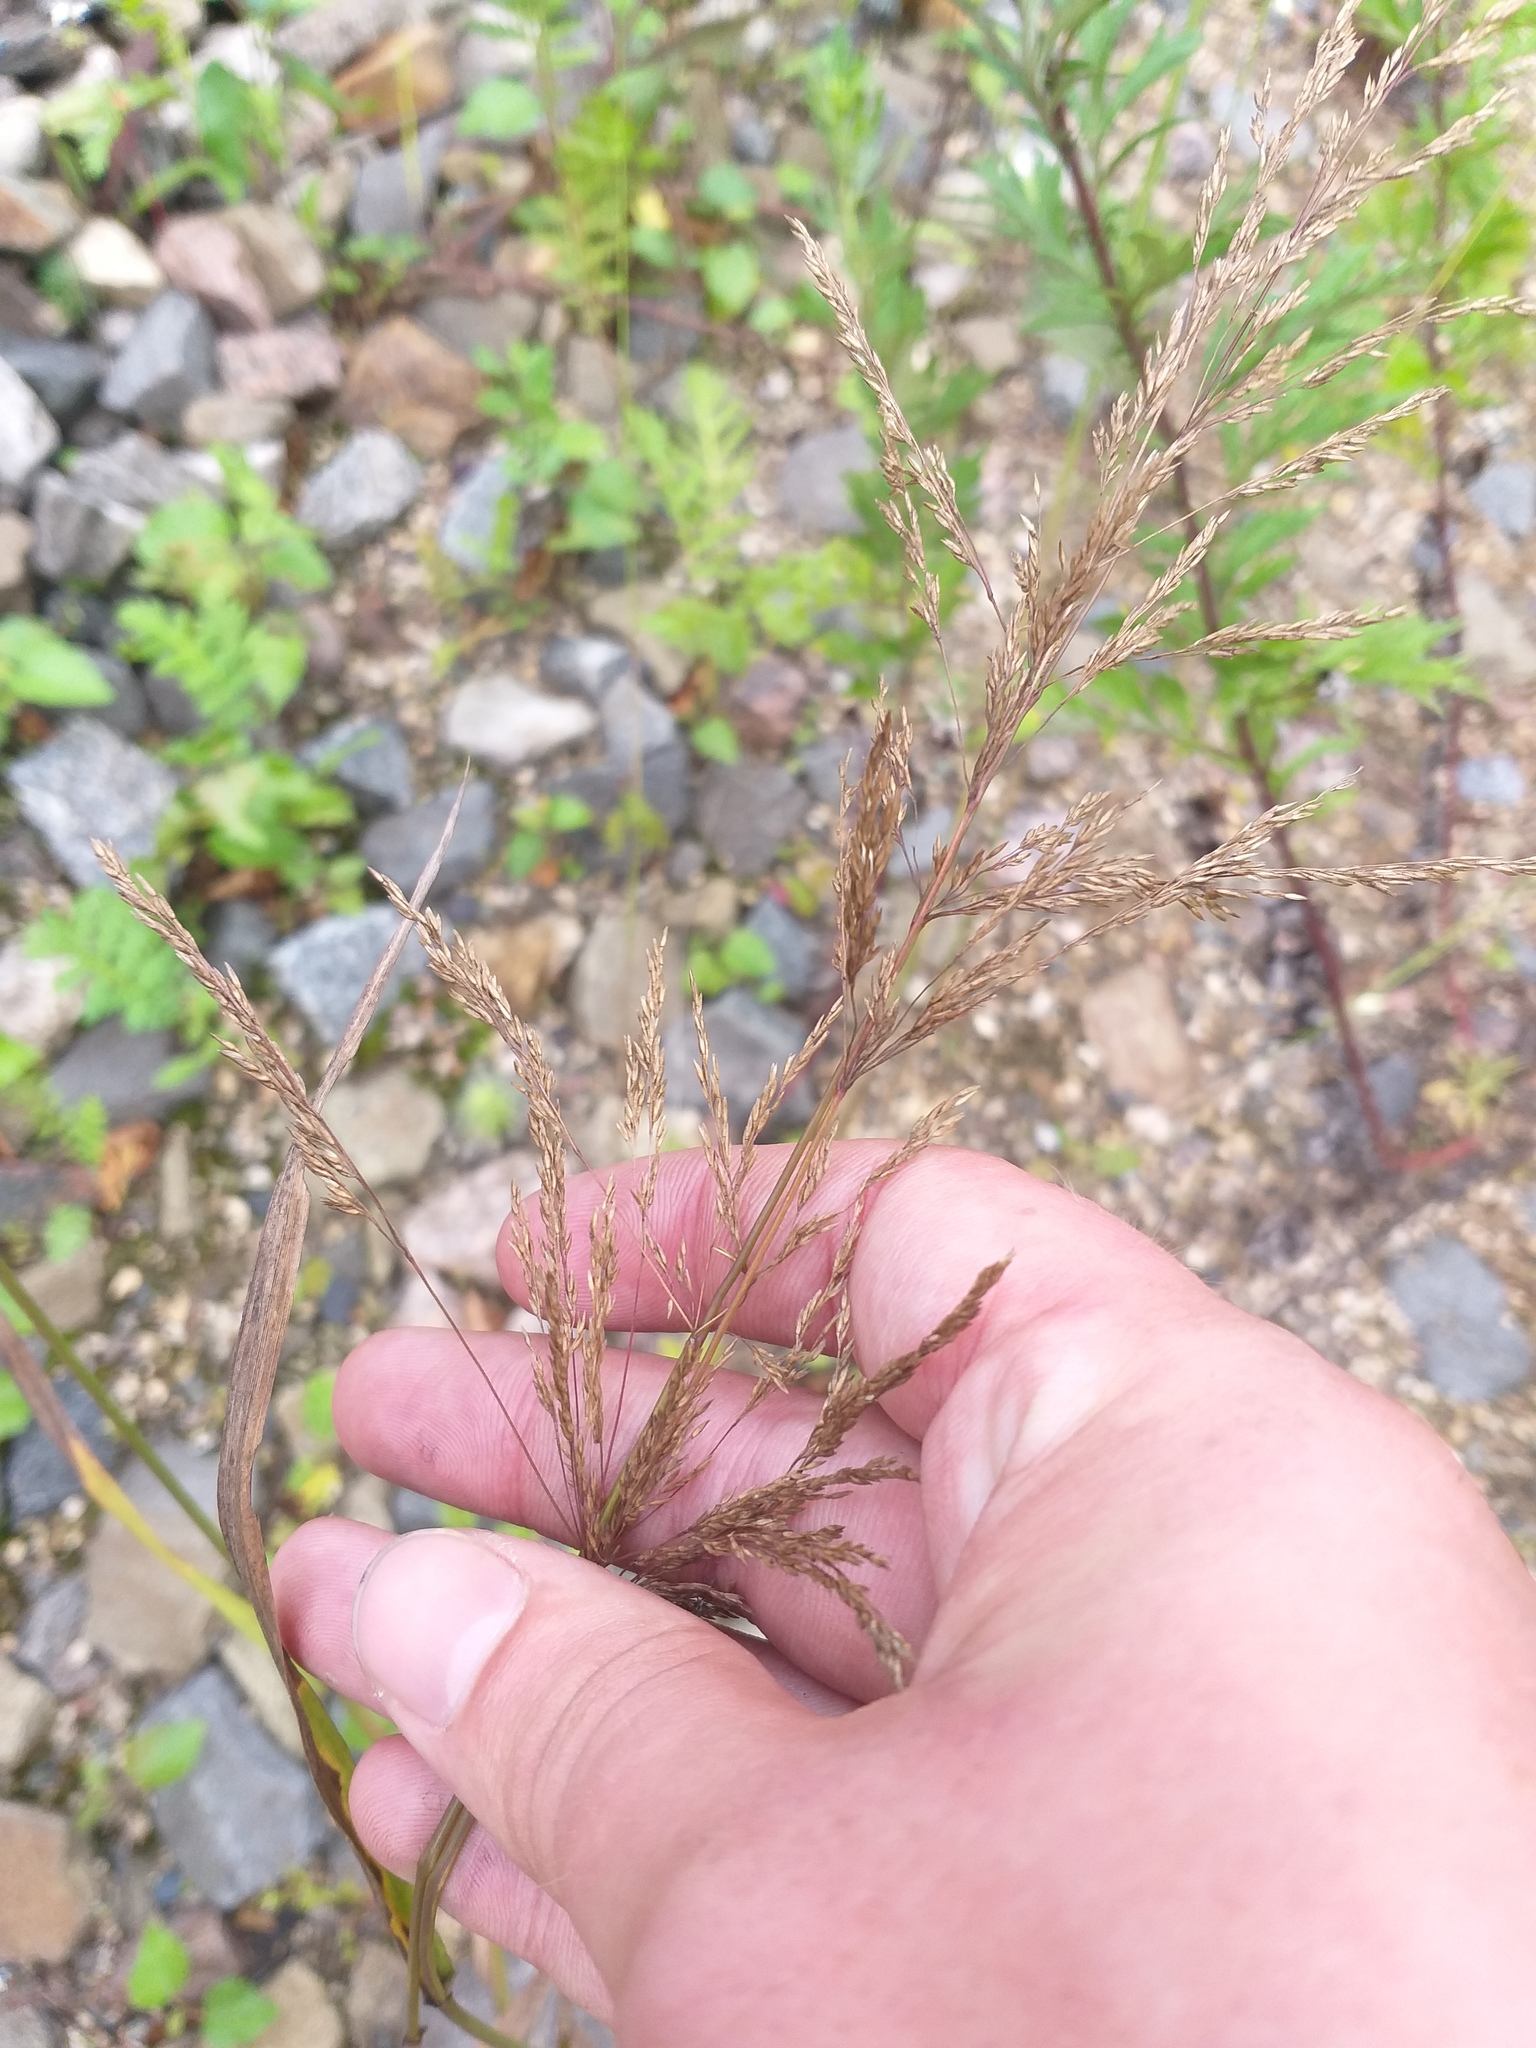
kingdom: Plantae
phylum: Tracheophyta
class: Liliopsida
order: Poales
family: Poaceae
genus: Agrostis
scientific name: Agrostis gigantea
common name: Black bent
